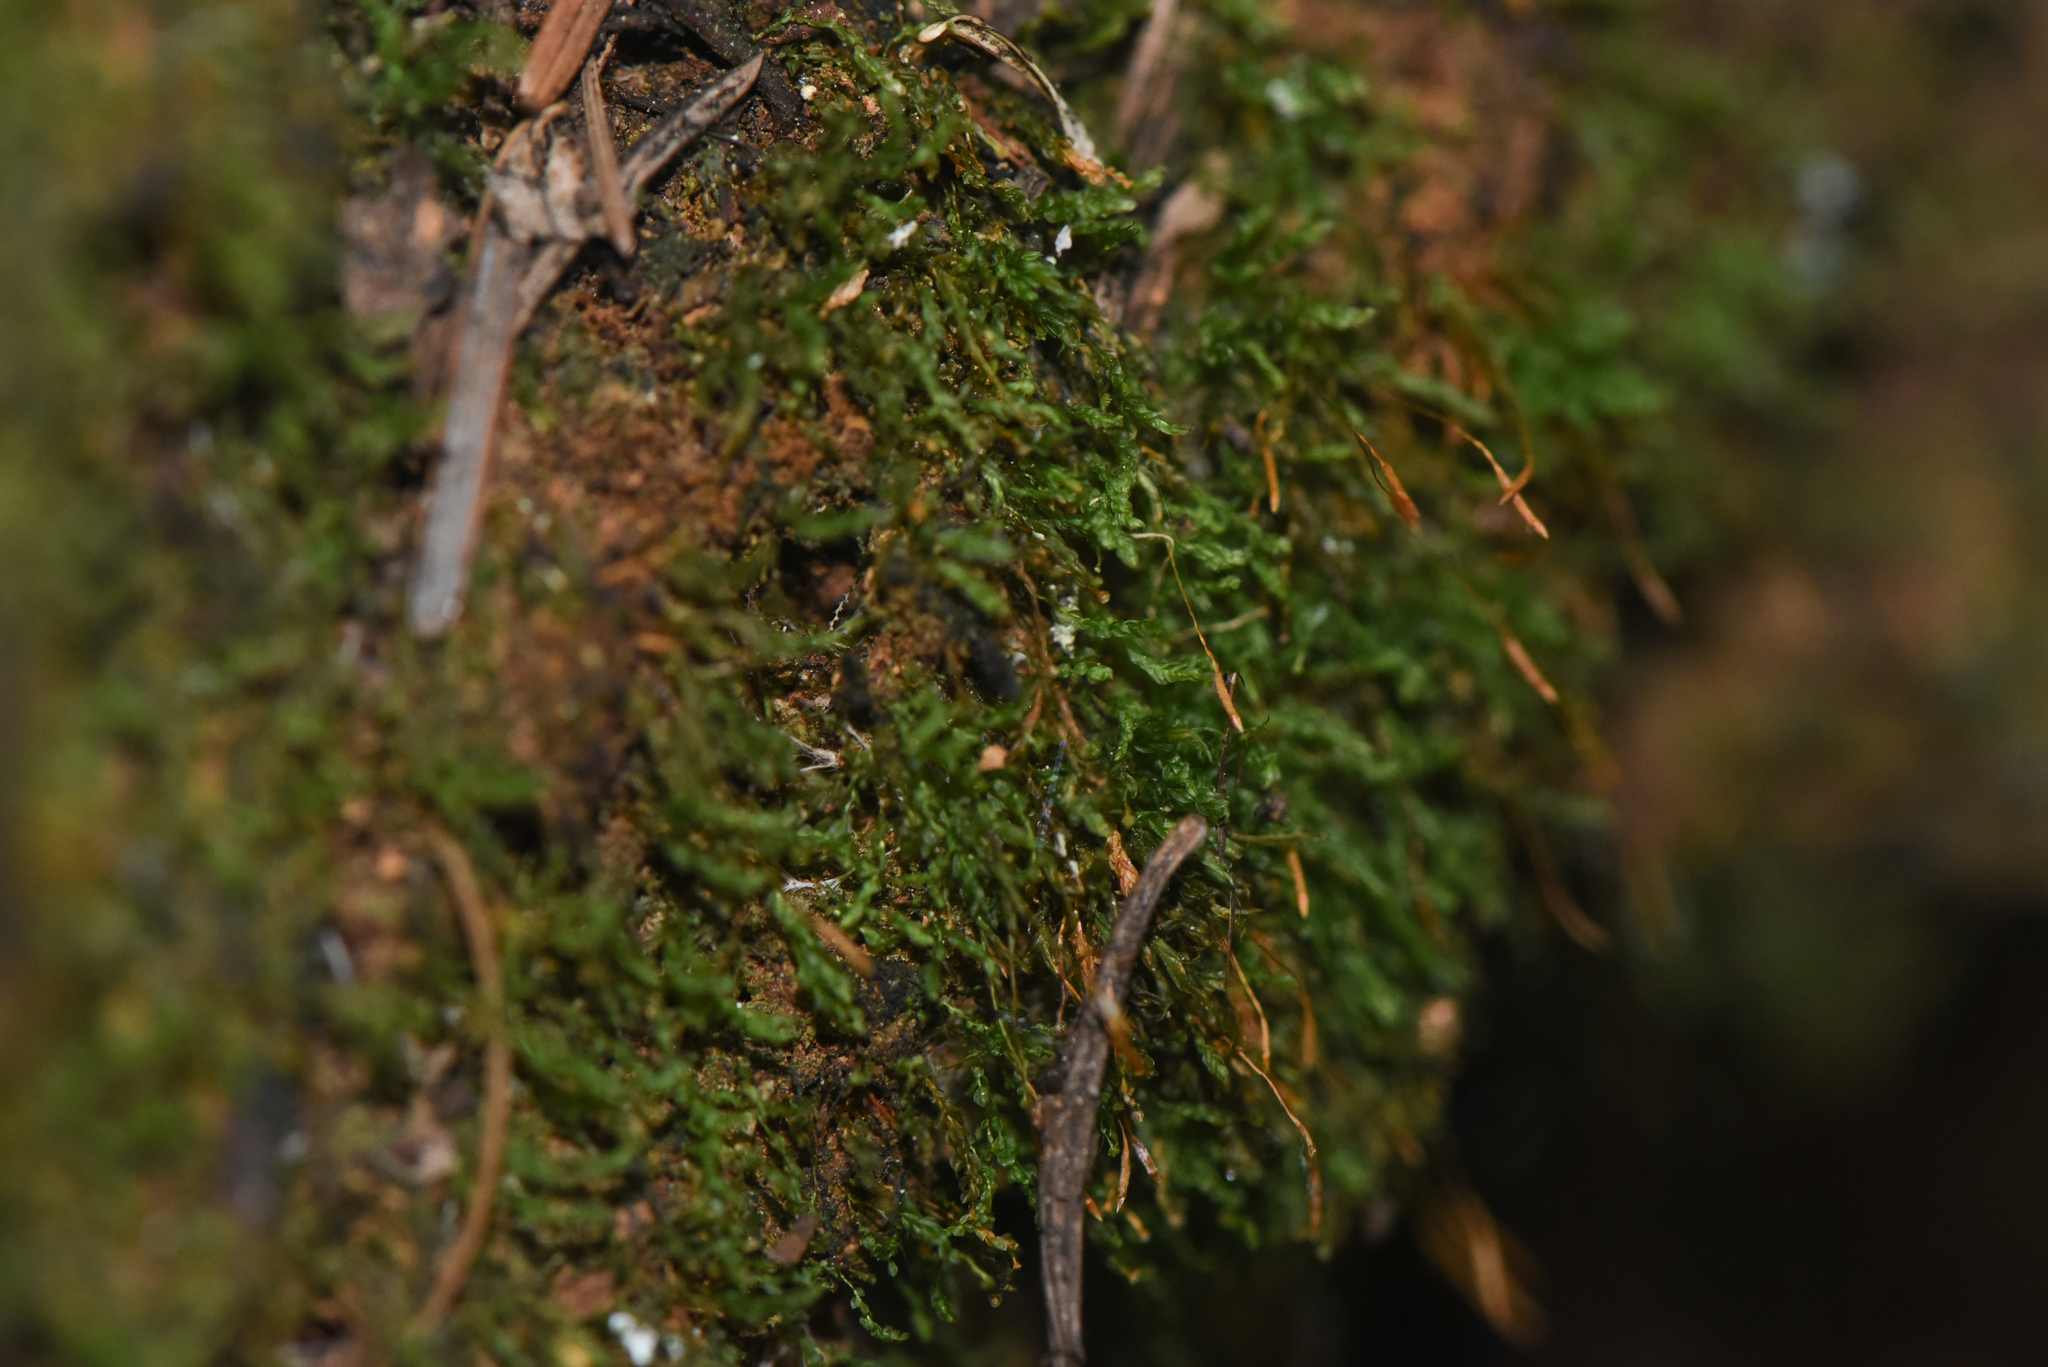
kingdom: Plantae
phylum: Bryophyta
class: Polytrichopsida
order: Tetraphidales
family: Tetraphidaceae
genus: Tetraphis
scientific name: Tetraphis pellucida
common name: Common four-toothed moss
